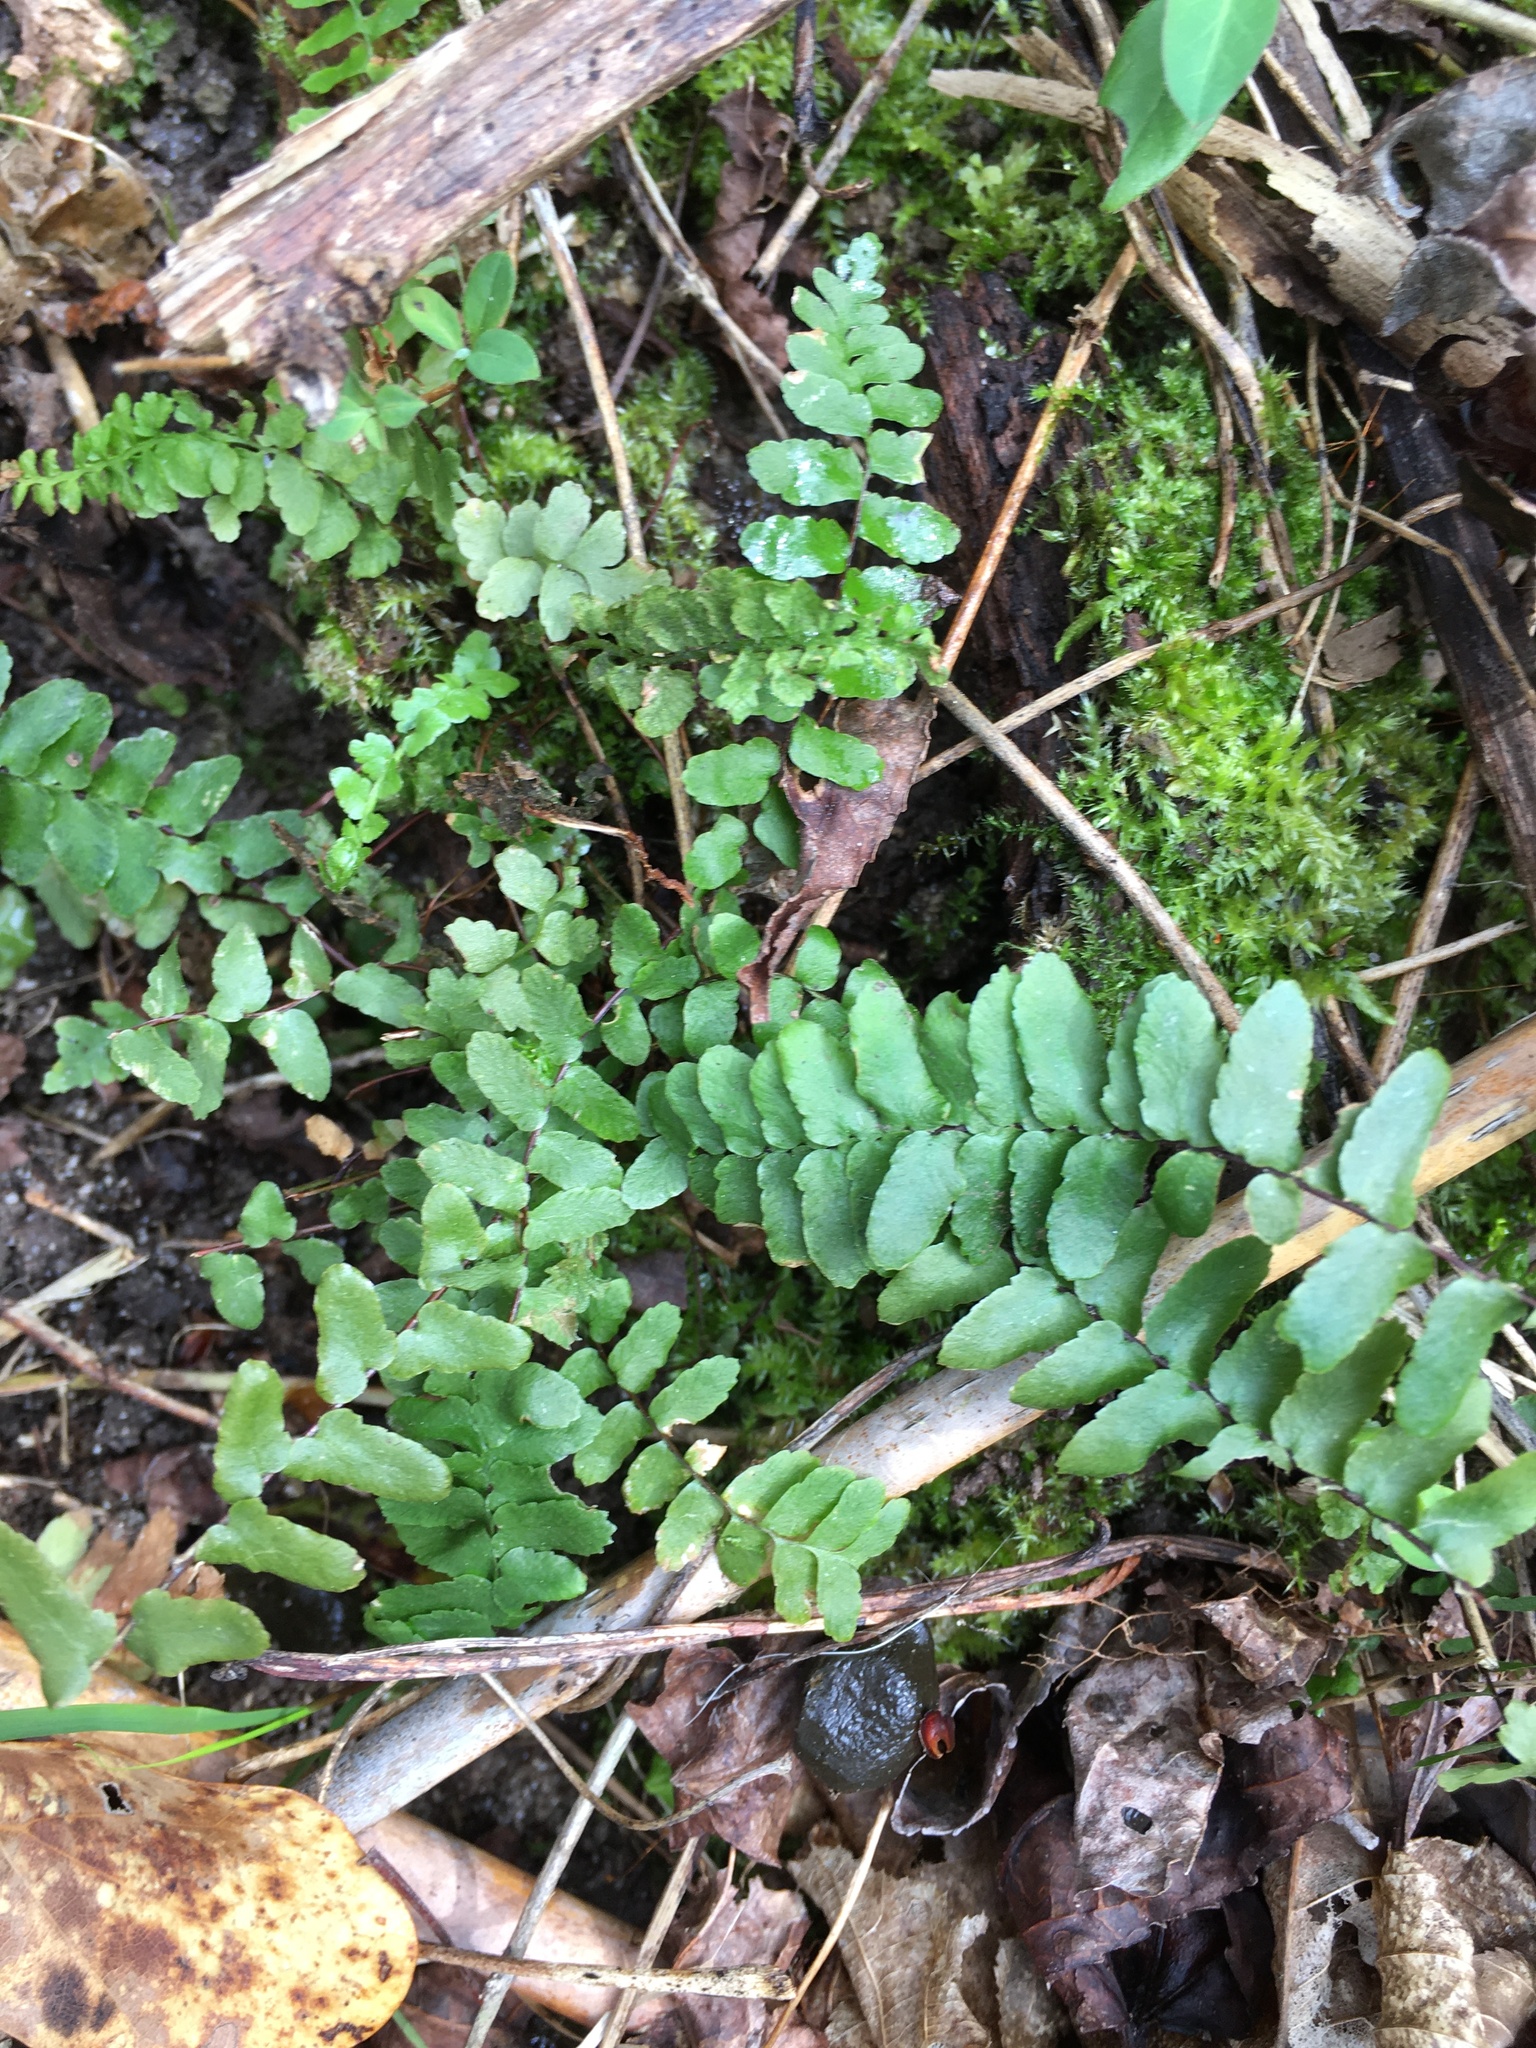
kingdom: Plantae
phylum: Tracheophyta
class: Polypodiopsida
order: Polypodiales
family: Aspleniaceae
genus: Asplenium
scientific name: Asplenium platyneuron
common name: Ebony spleenwort
